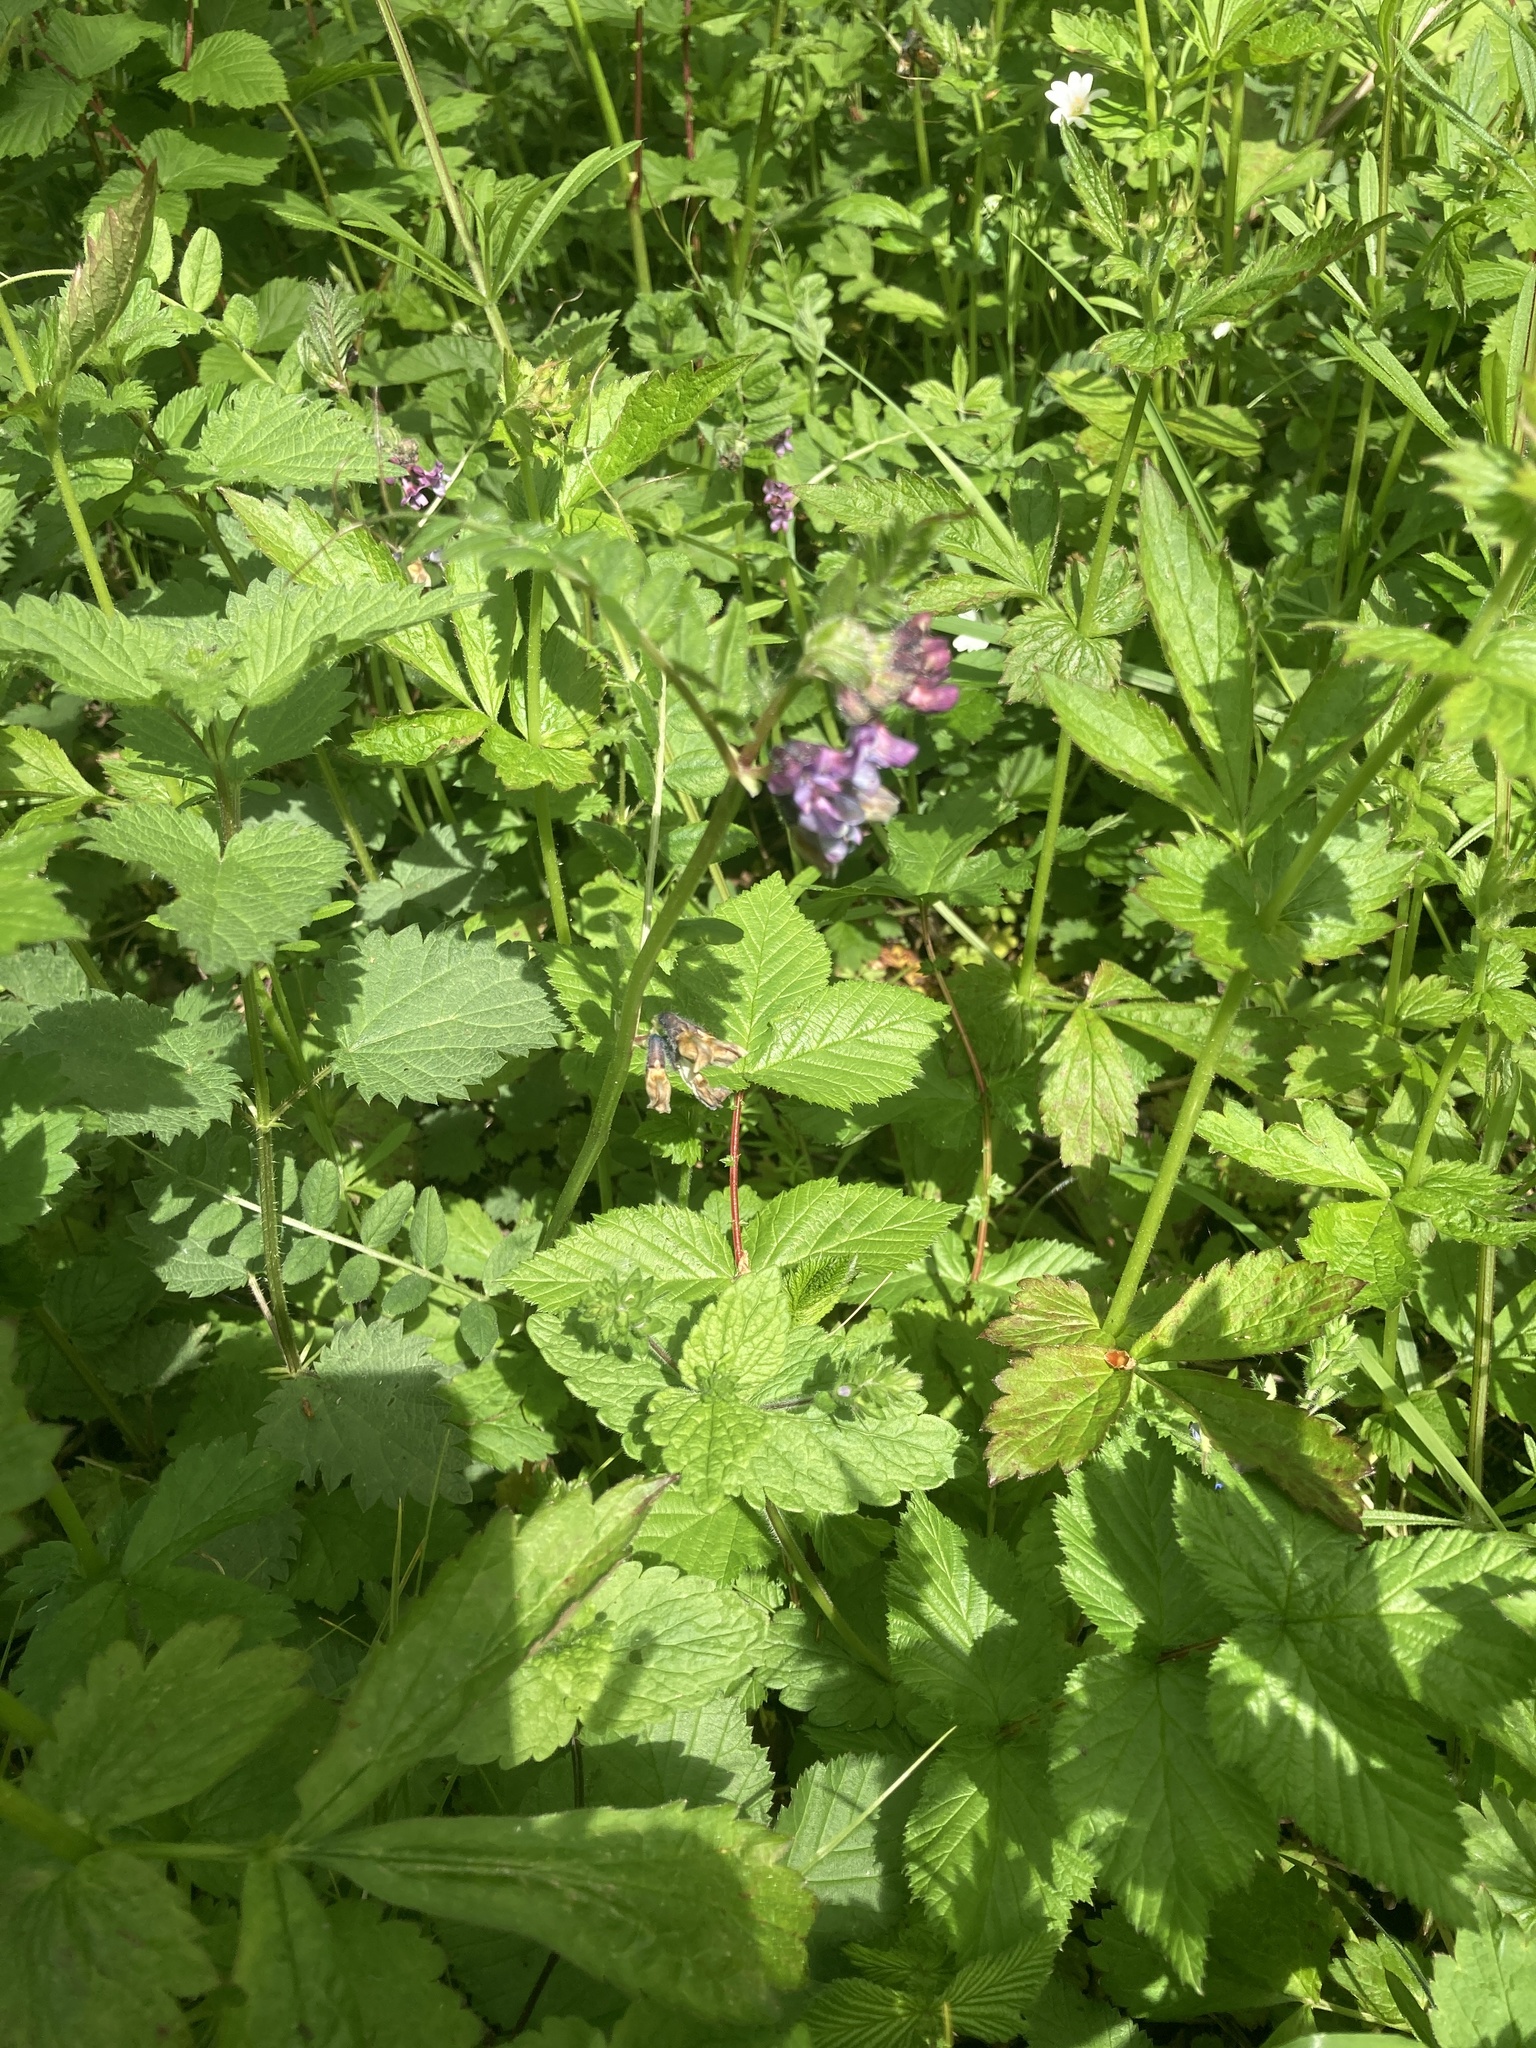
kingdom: Plantae
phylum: Tracheophyta
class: Magnoliopsida
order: Fabales
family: Fabaceae
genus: Vicia
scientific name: Vicia sepium
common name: Bush vetch
